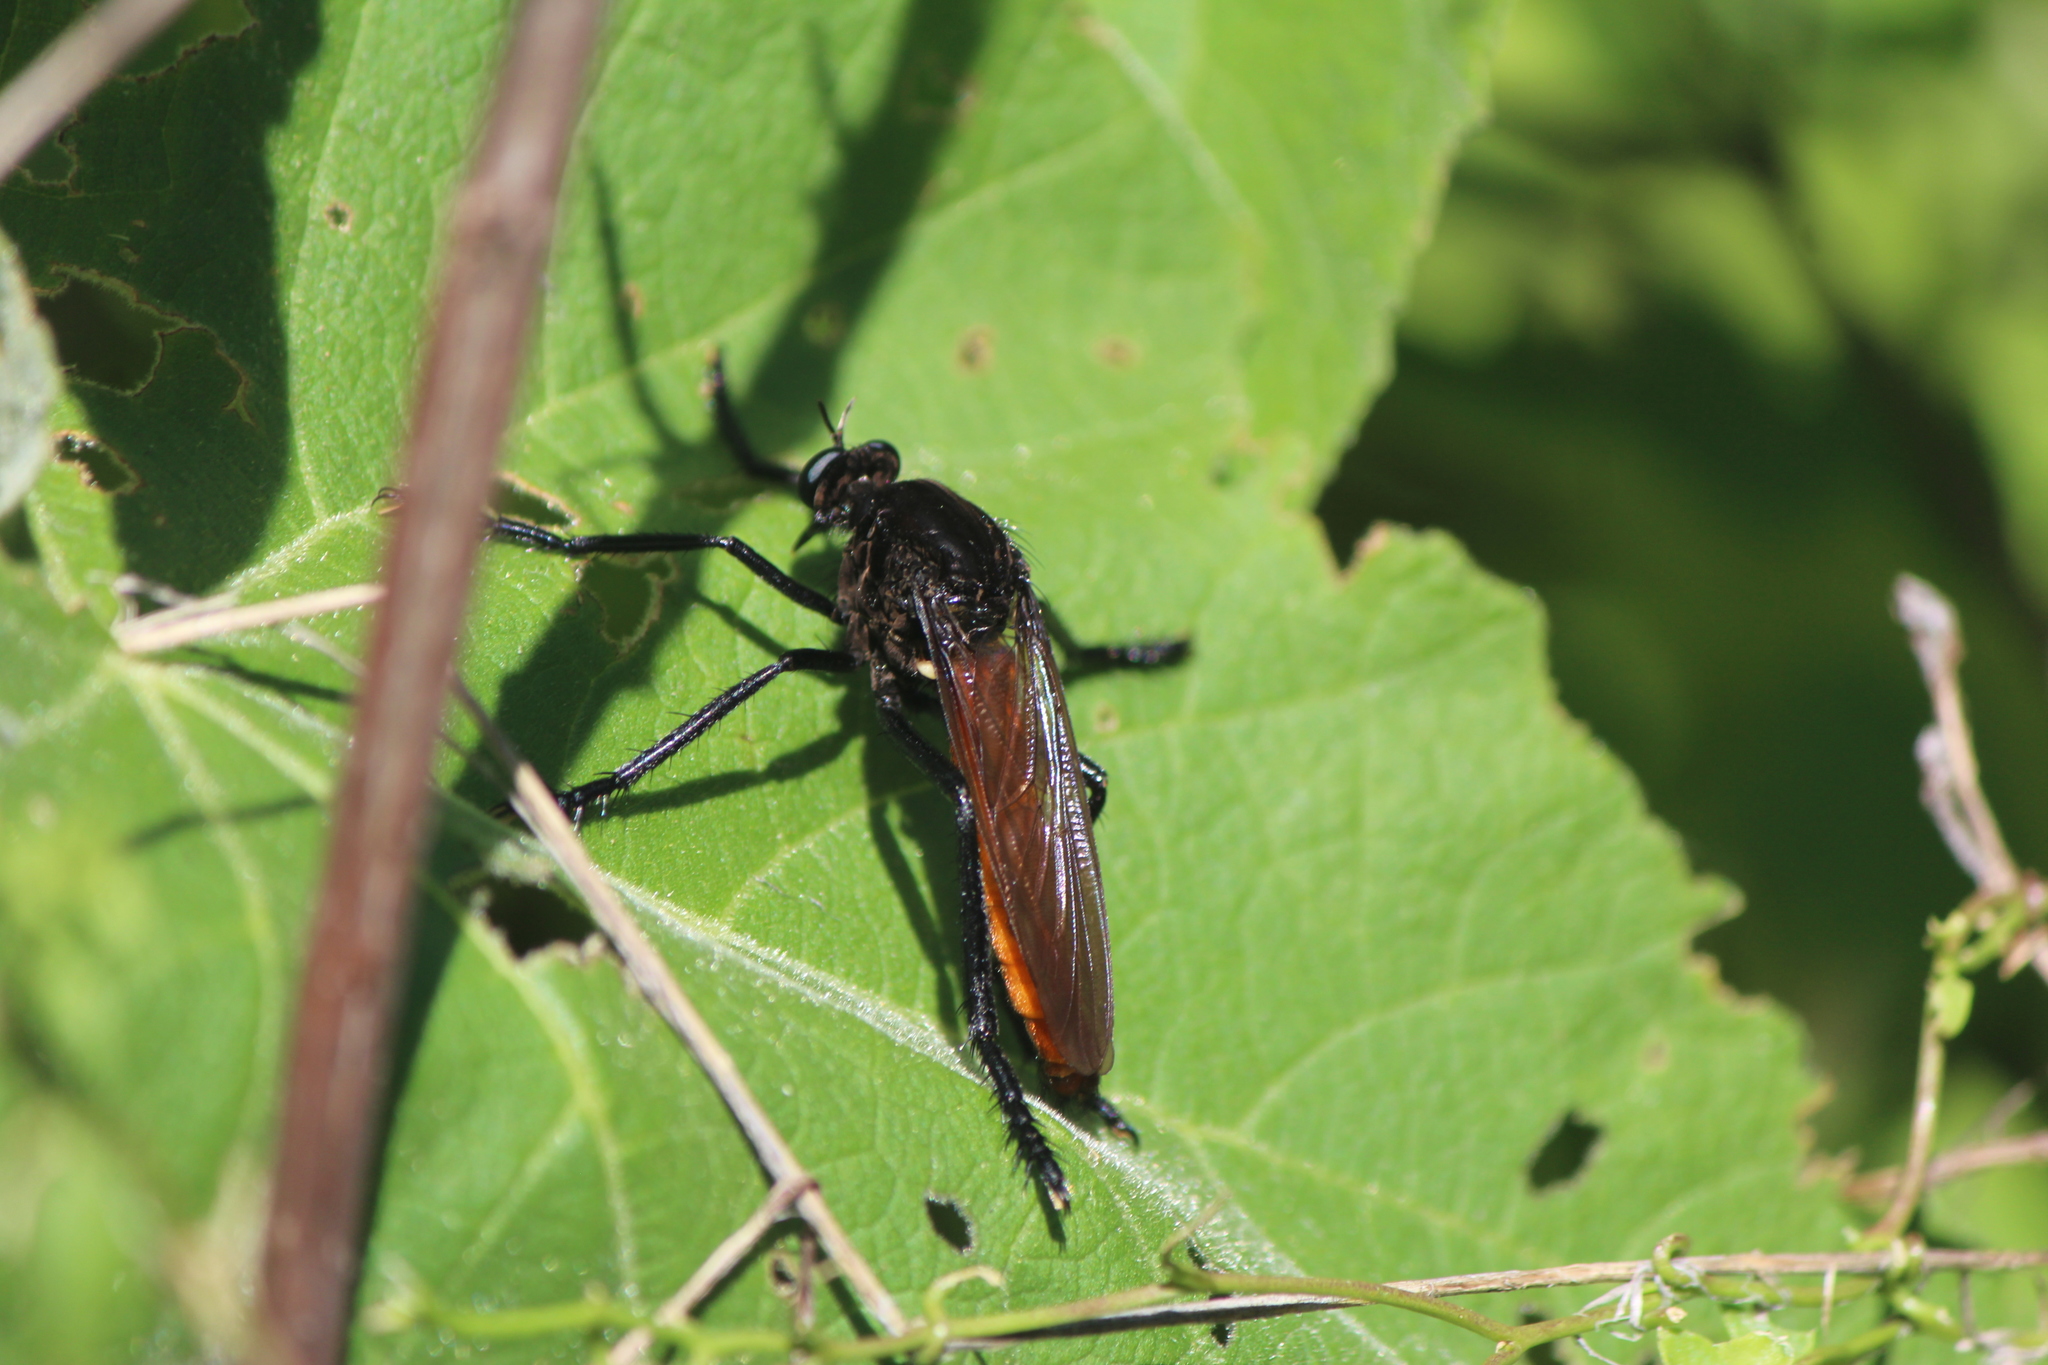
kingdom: Animalia
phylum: Arthropoda
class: Insecta
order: Diptera
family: Asilidae
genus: Archilestris
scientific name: Archilestris magnificus
